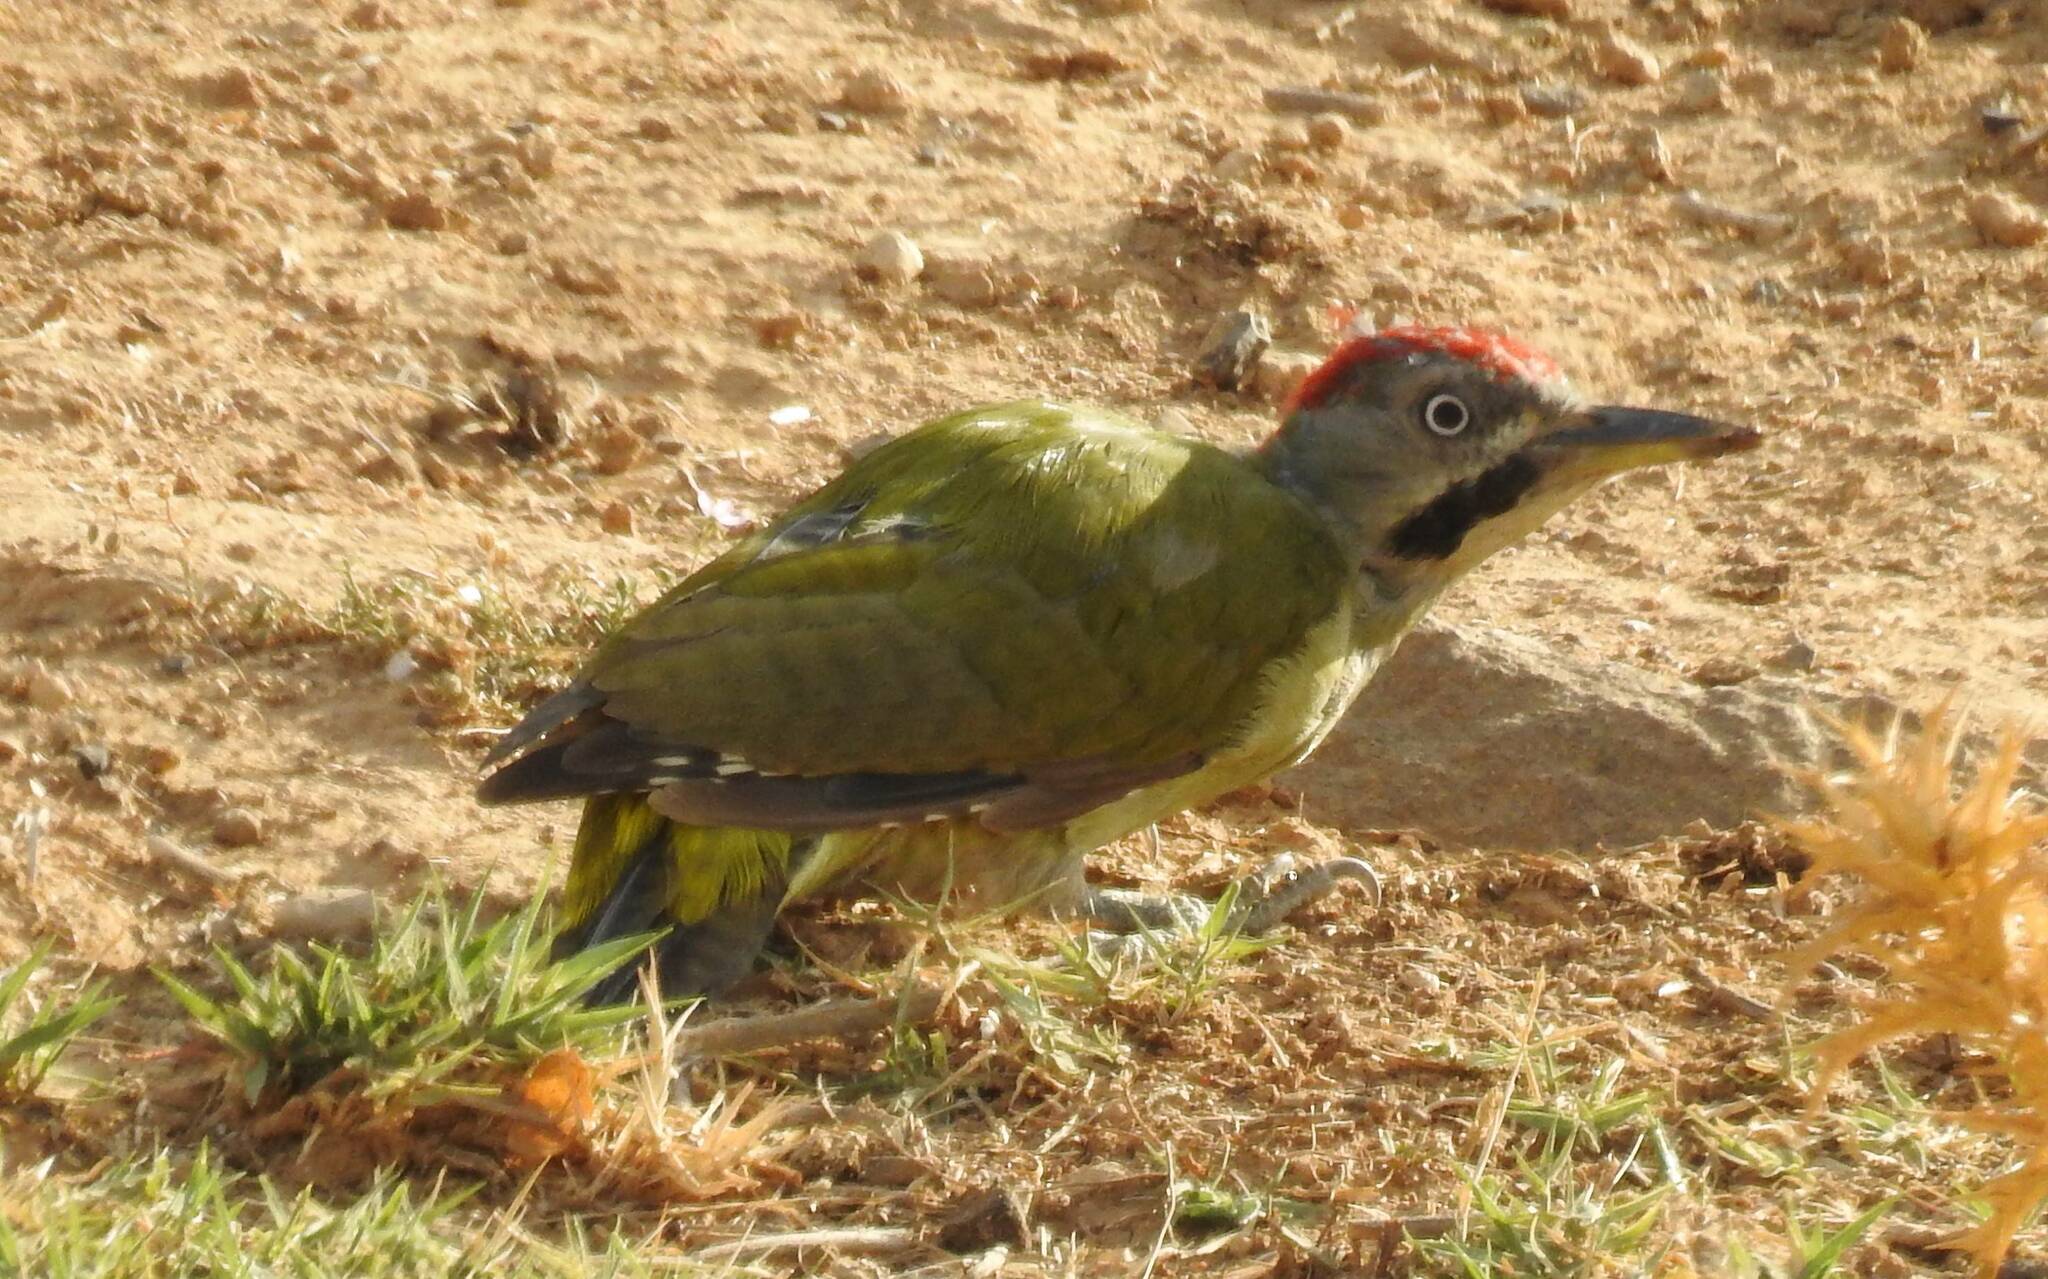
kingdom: Animalia
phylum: Chordata
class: Aves
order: Piciformes
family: Picidae
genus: Picus
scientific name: Picus vaillantii
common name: Levaillant's woodpecker
